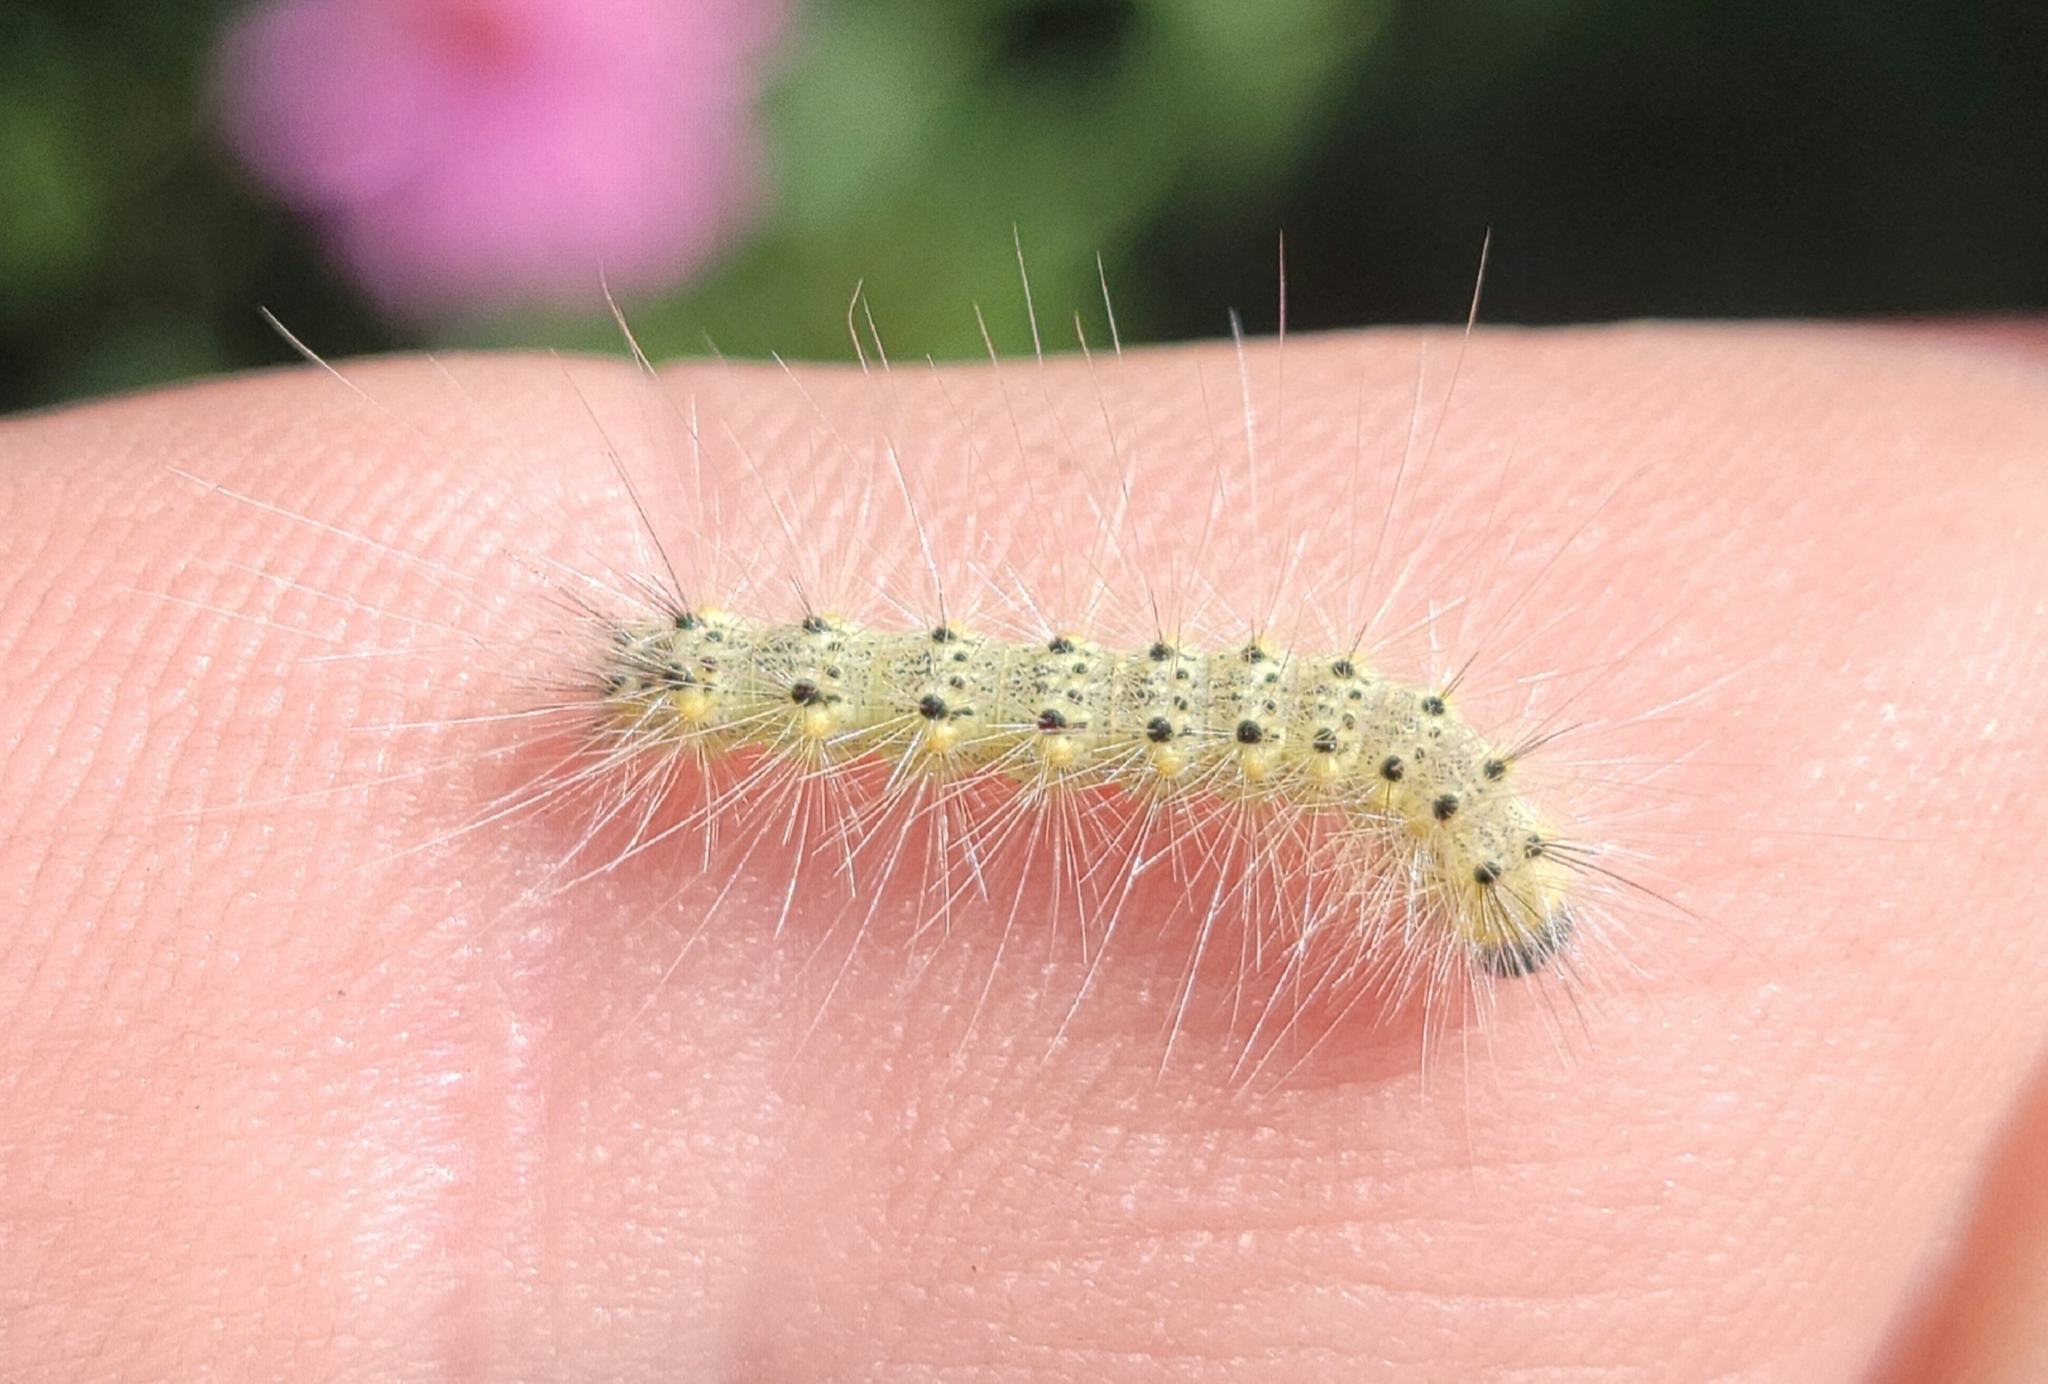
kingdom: Animalia
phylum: Arthropoda
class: Insecta
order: Lepidoptera
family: Erebidae
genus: Hyphantria
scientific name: Hyphantria cunea
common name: American white moth
